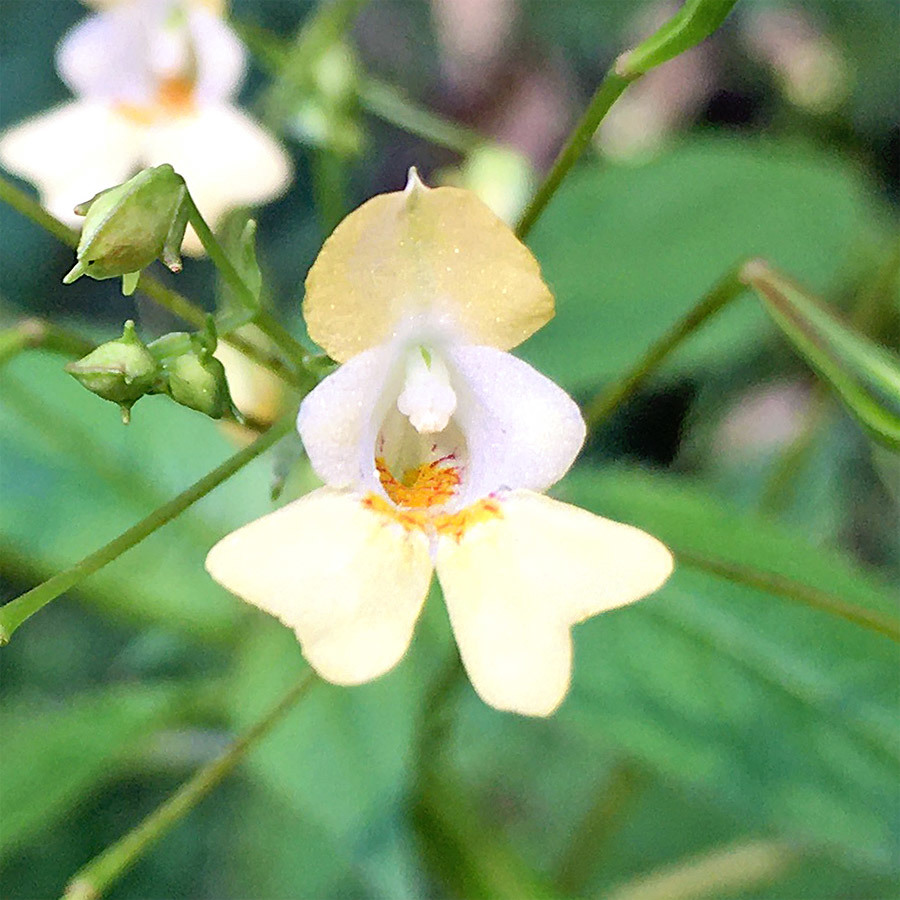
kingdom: Plantae
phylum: Tracheophyta
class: Magnoliopsida
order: Ericales
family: Balsaminaceae
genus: Impatiens
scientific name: Impatiens parviflora
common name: Small balsam
